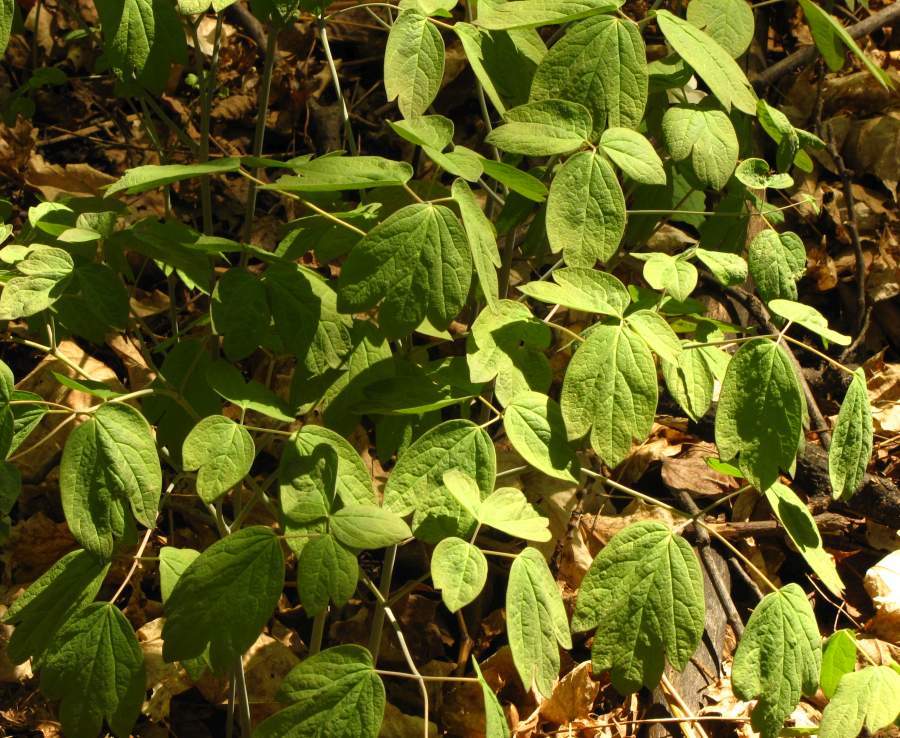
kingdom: Plantae
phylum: Tracheophyta
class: Magnoliopsida
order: Ranunculales
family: Berberidaceae
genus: Caulophyllum
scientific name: Caulophyllum thalictroides
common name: Blue cohosh
